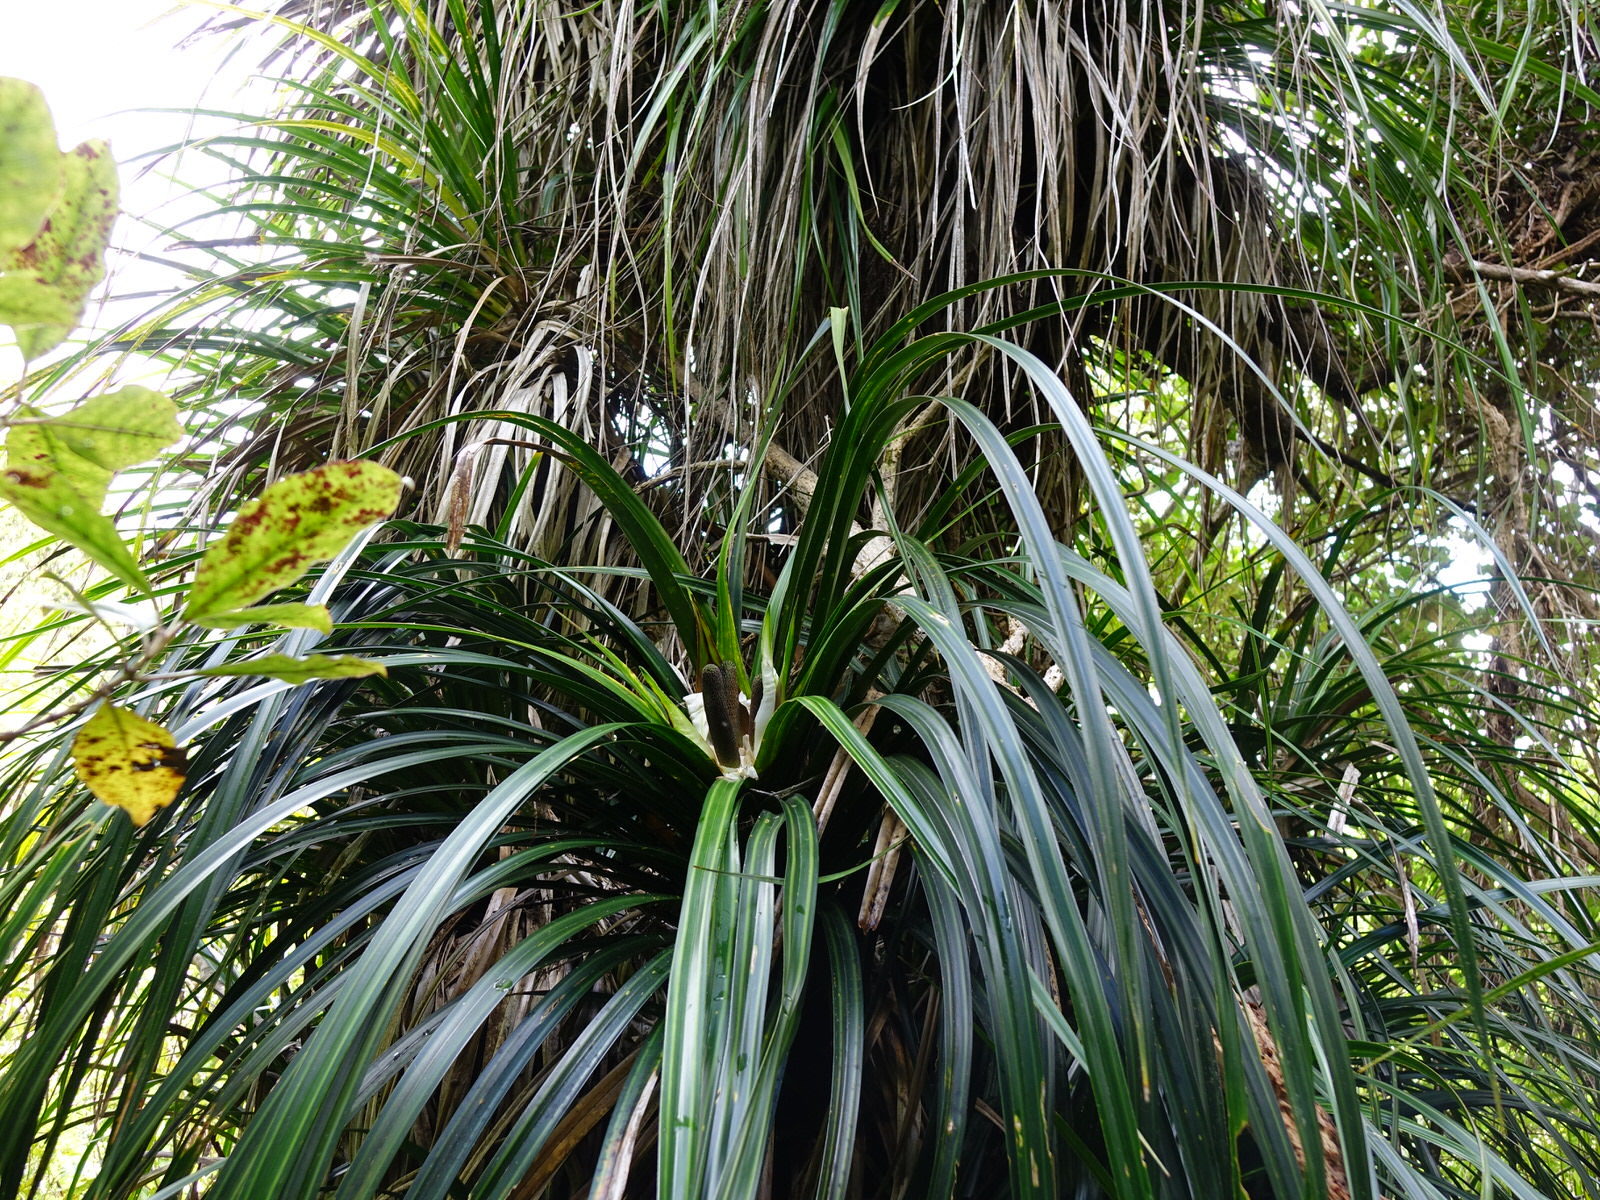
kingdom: Plantae
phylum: Tracheophyta
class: Liliopsida
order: Pandanales
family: Pandanaceae
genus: Freycinetia
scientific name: Freycinetia banksii
